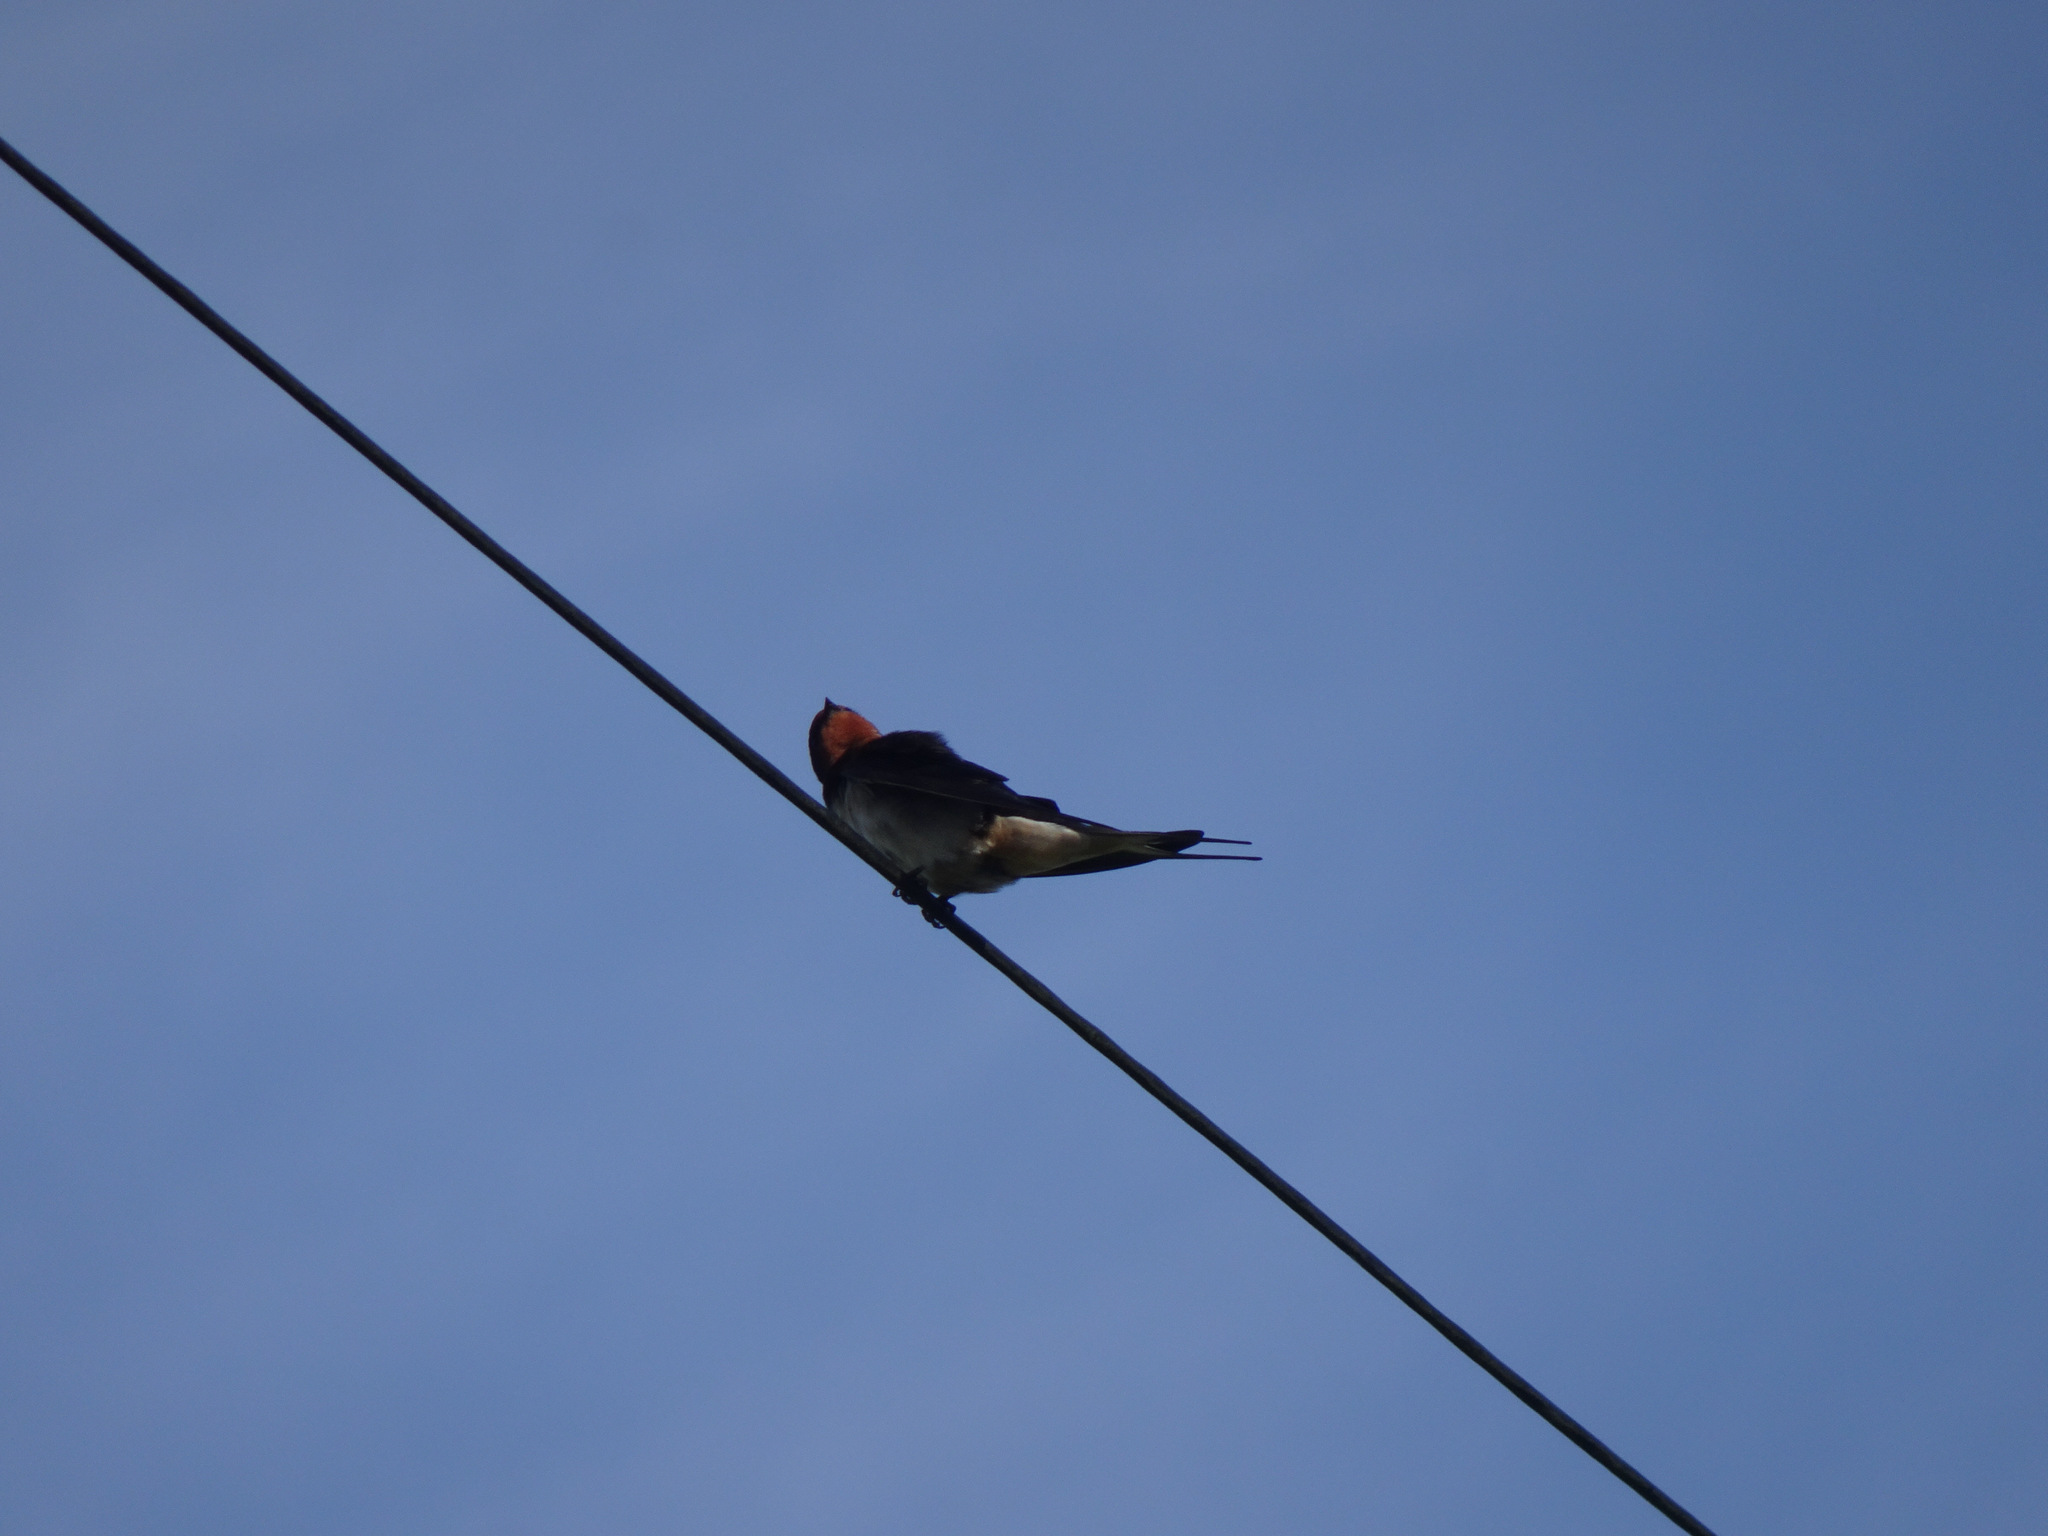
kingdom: Animalia
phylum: Chordata
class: Aves
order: Passeriformes
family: Hirundinidae
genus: Hirundo
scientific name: Hirundo rustica
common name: Barn swallow
